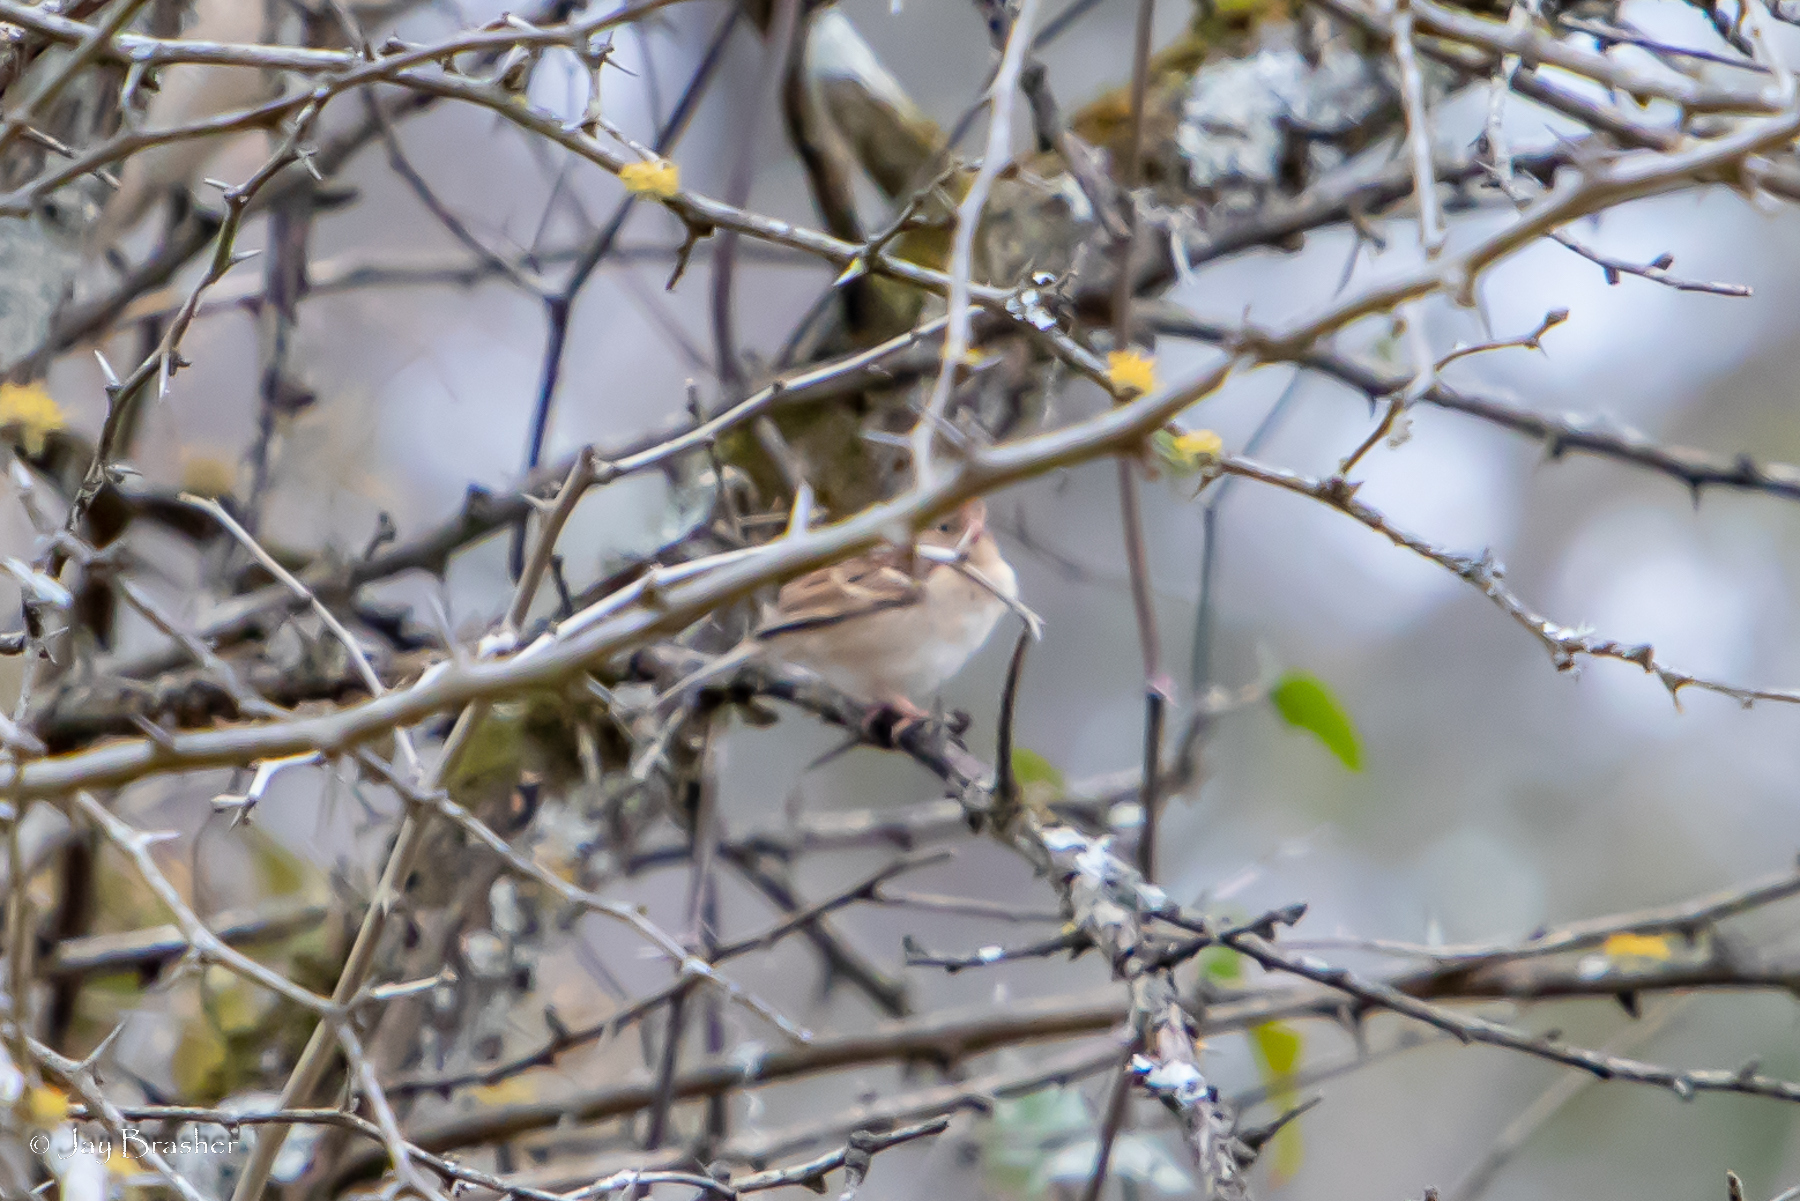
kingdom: Animalia
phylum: Chordata
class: Aves
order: Passeriformes
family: Passerellidae
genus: Spizella
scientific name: Spizella pusilla
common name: Field sparrow
